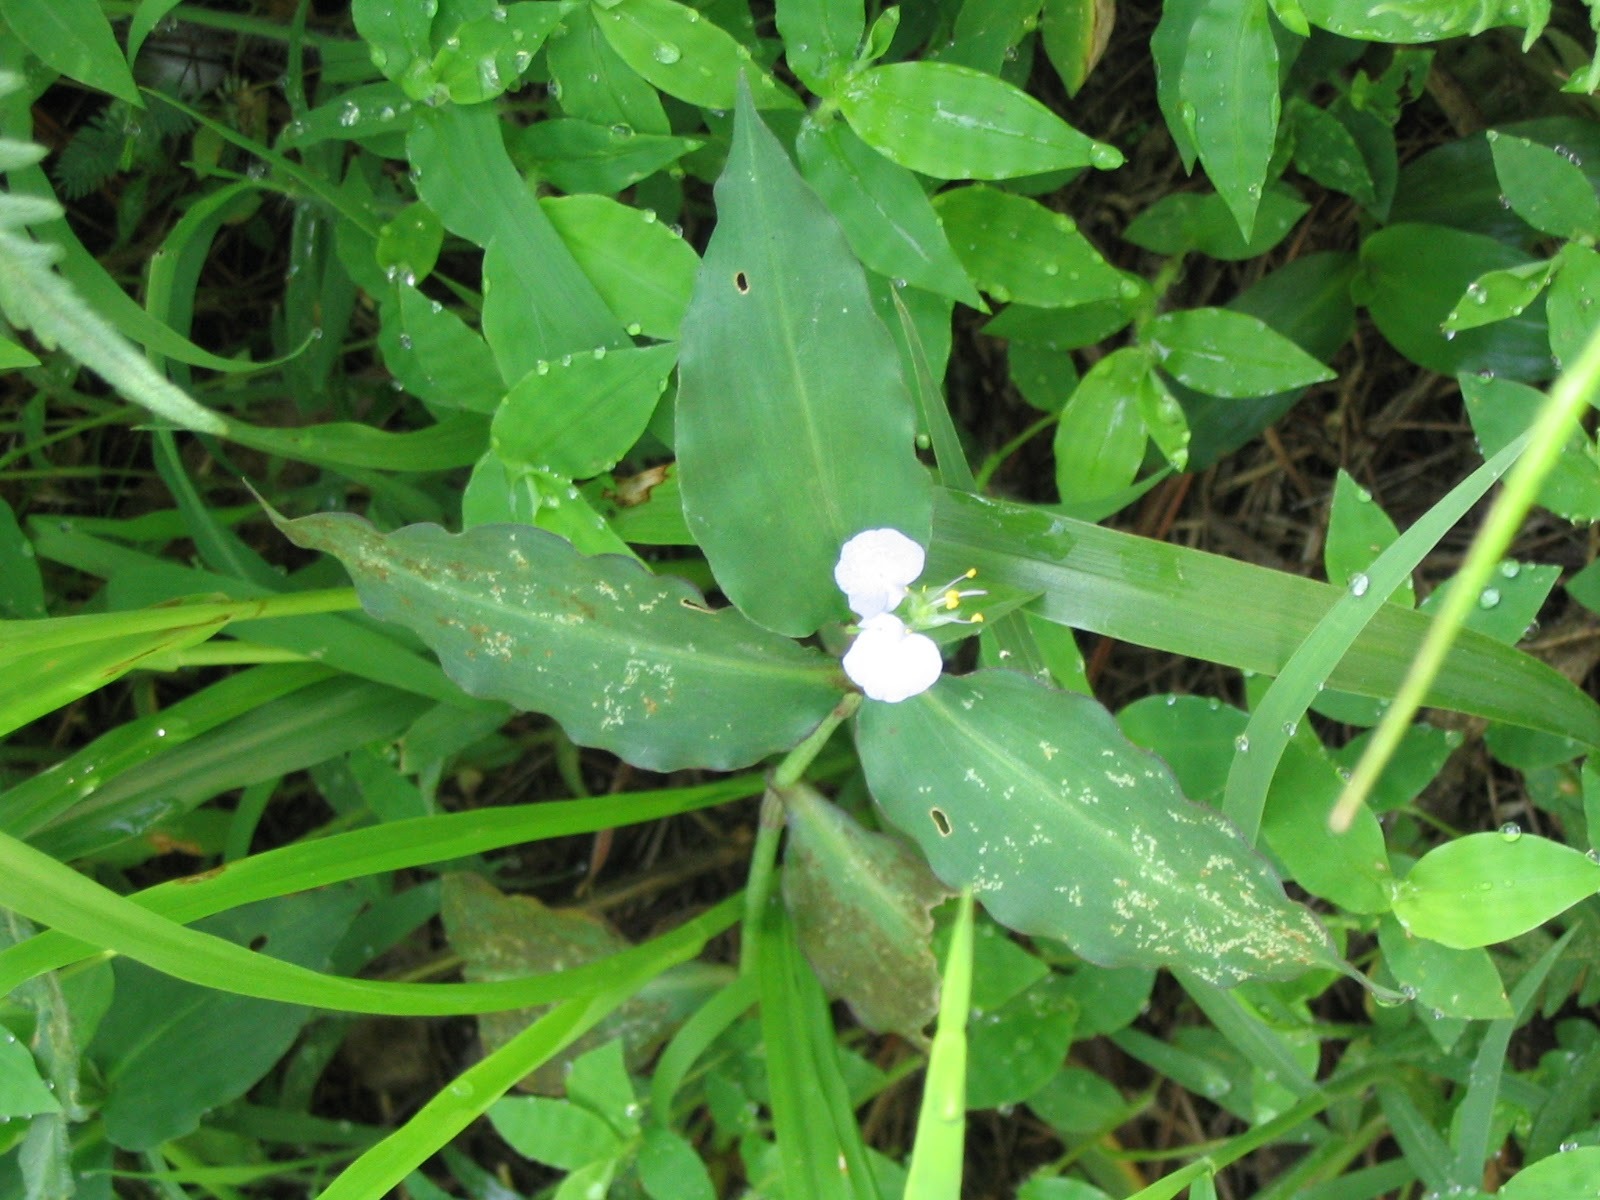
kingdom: Plantae
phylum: Tracheophyta
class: Liliopsida
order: Commelinales
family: Commelinaceae
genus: Commelina
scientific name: Commelina erecta
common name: Blousel blommetjie
